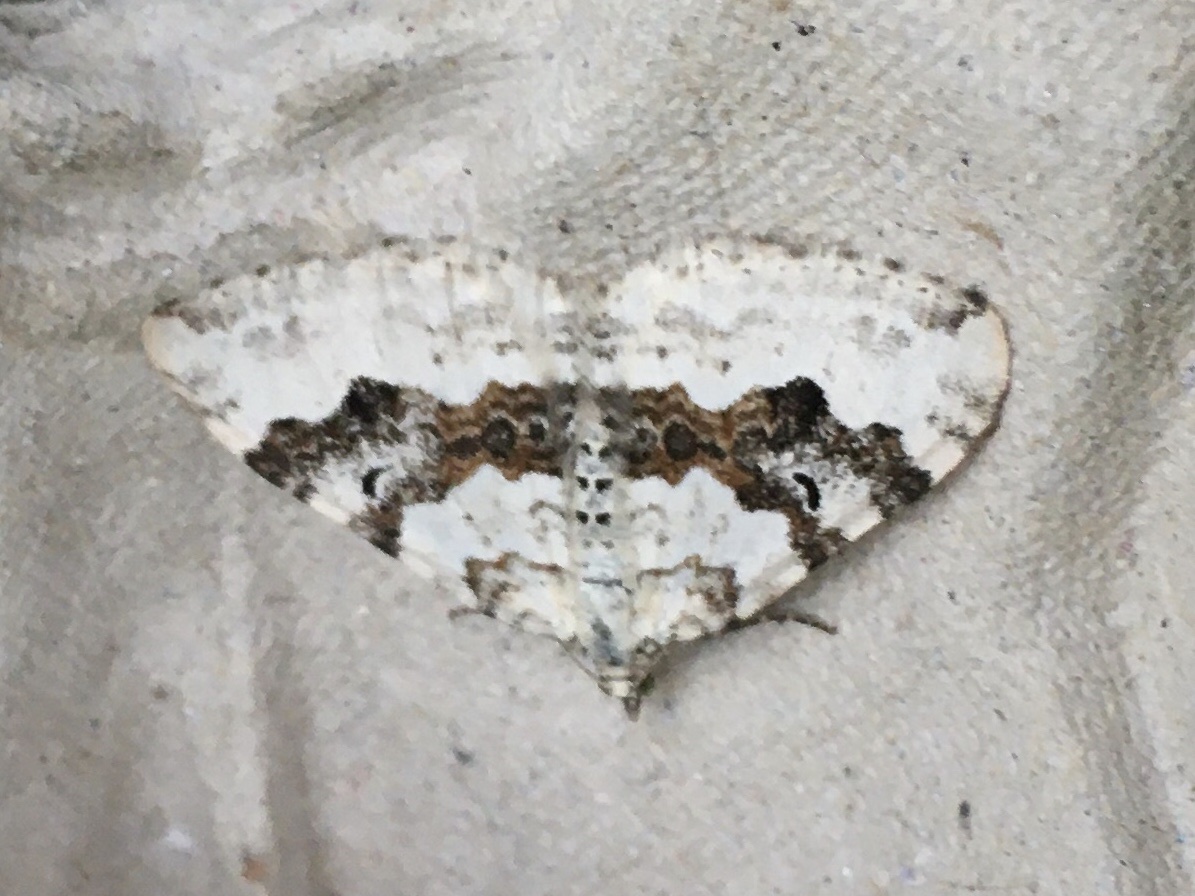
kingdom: Animalia
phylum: Arthropoda
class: Insecta
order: Lepidoptera
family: Geometridae
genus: Xanthorhoe
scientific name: Xanthorhoe montanata
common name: Silver-ground carpet
